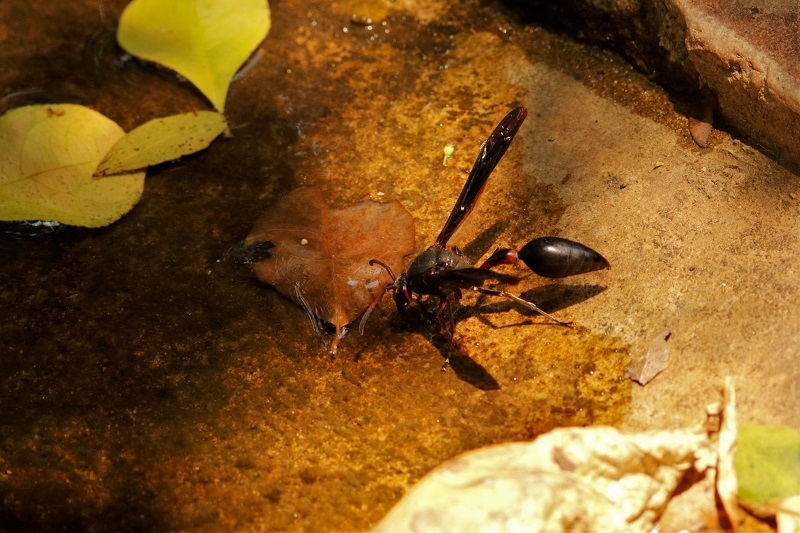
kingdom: Animalia
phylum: Arthropoda
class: Insecta
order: Hymenoptera
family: Eumenidae
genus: Delta
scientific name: Delta emarginatum
